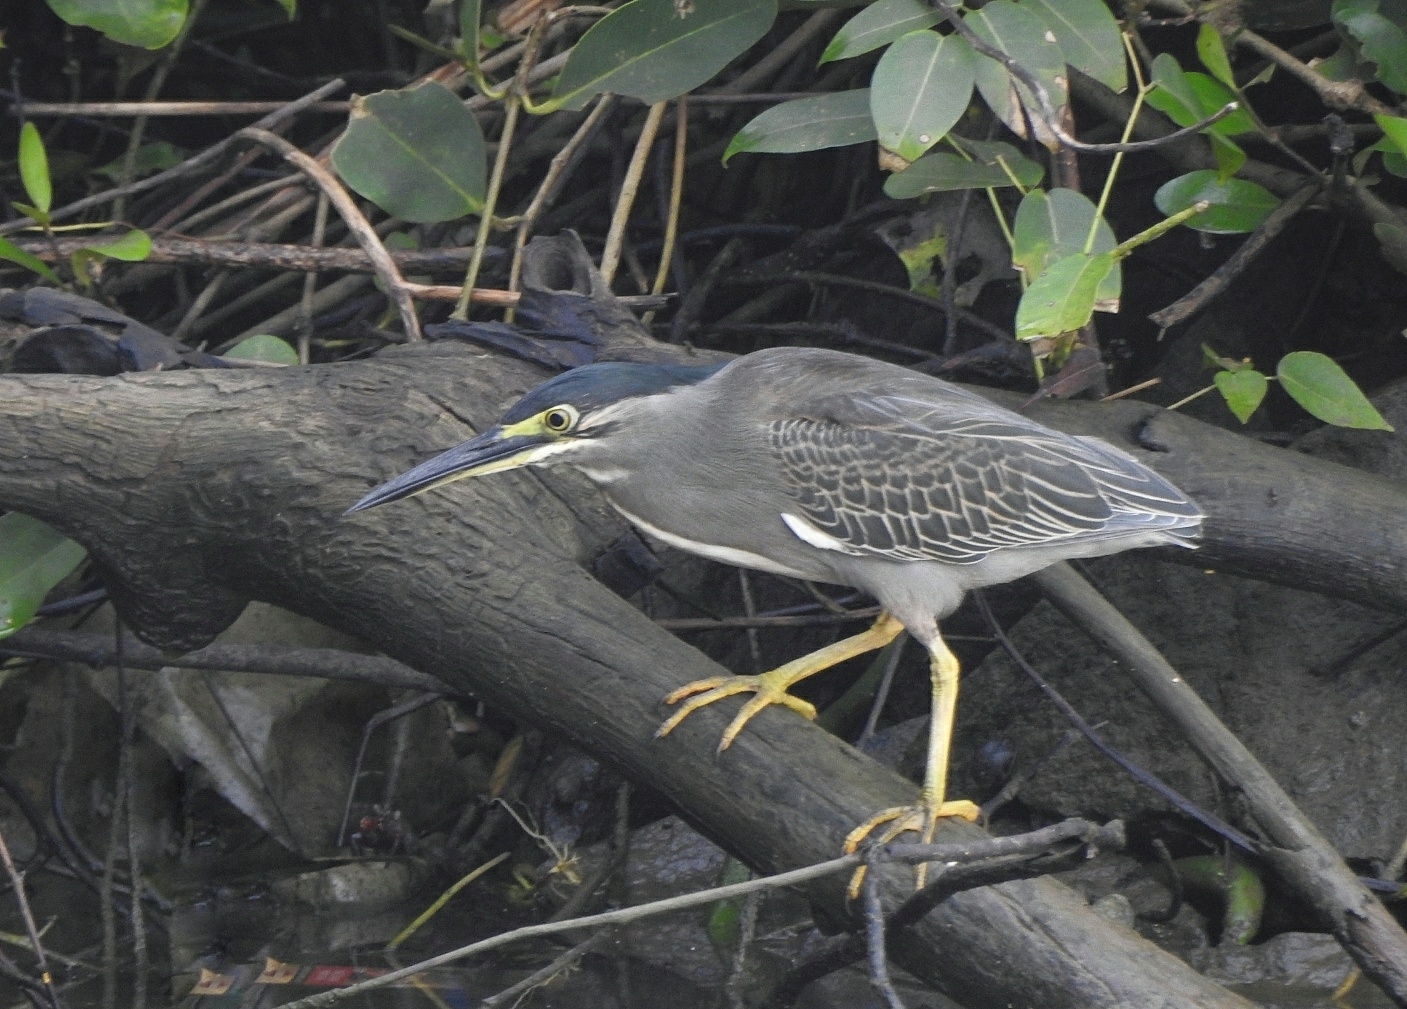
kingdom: Animalia
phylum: Chordata
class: Aves
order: Pelecaniformes
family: Ardeidae
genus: Butorides
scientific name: Butorides striata
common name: Striated heron
